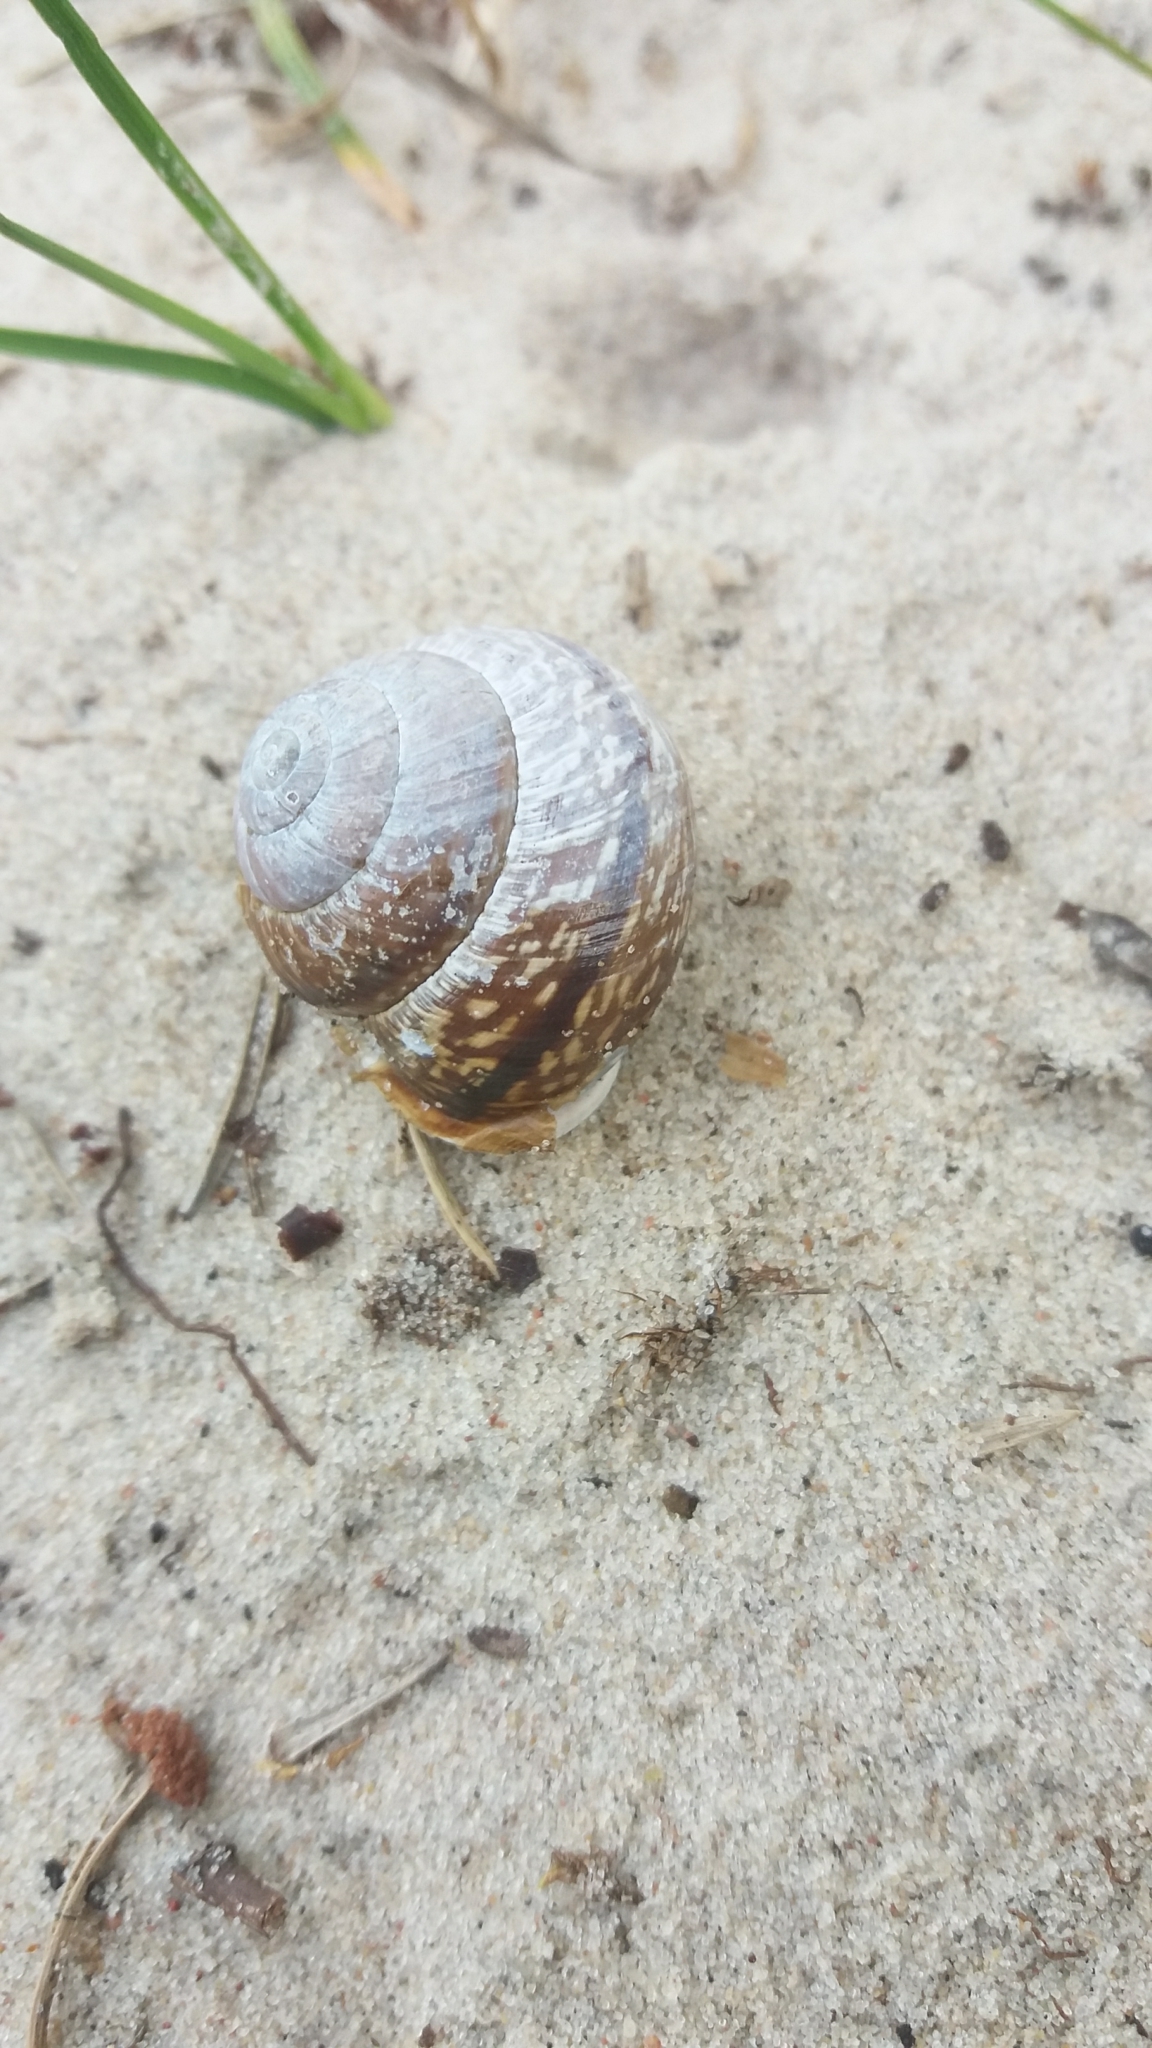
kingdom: Animalia
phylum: Mollusca
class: Gastropoda
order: Stylommatophora
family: Helicidae
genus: Arianta
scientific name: Arianta arbustorum
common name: Copse snail
